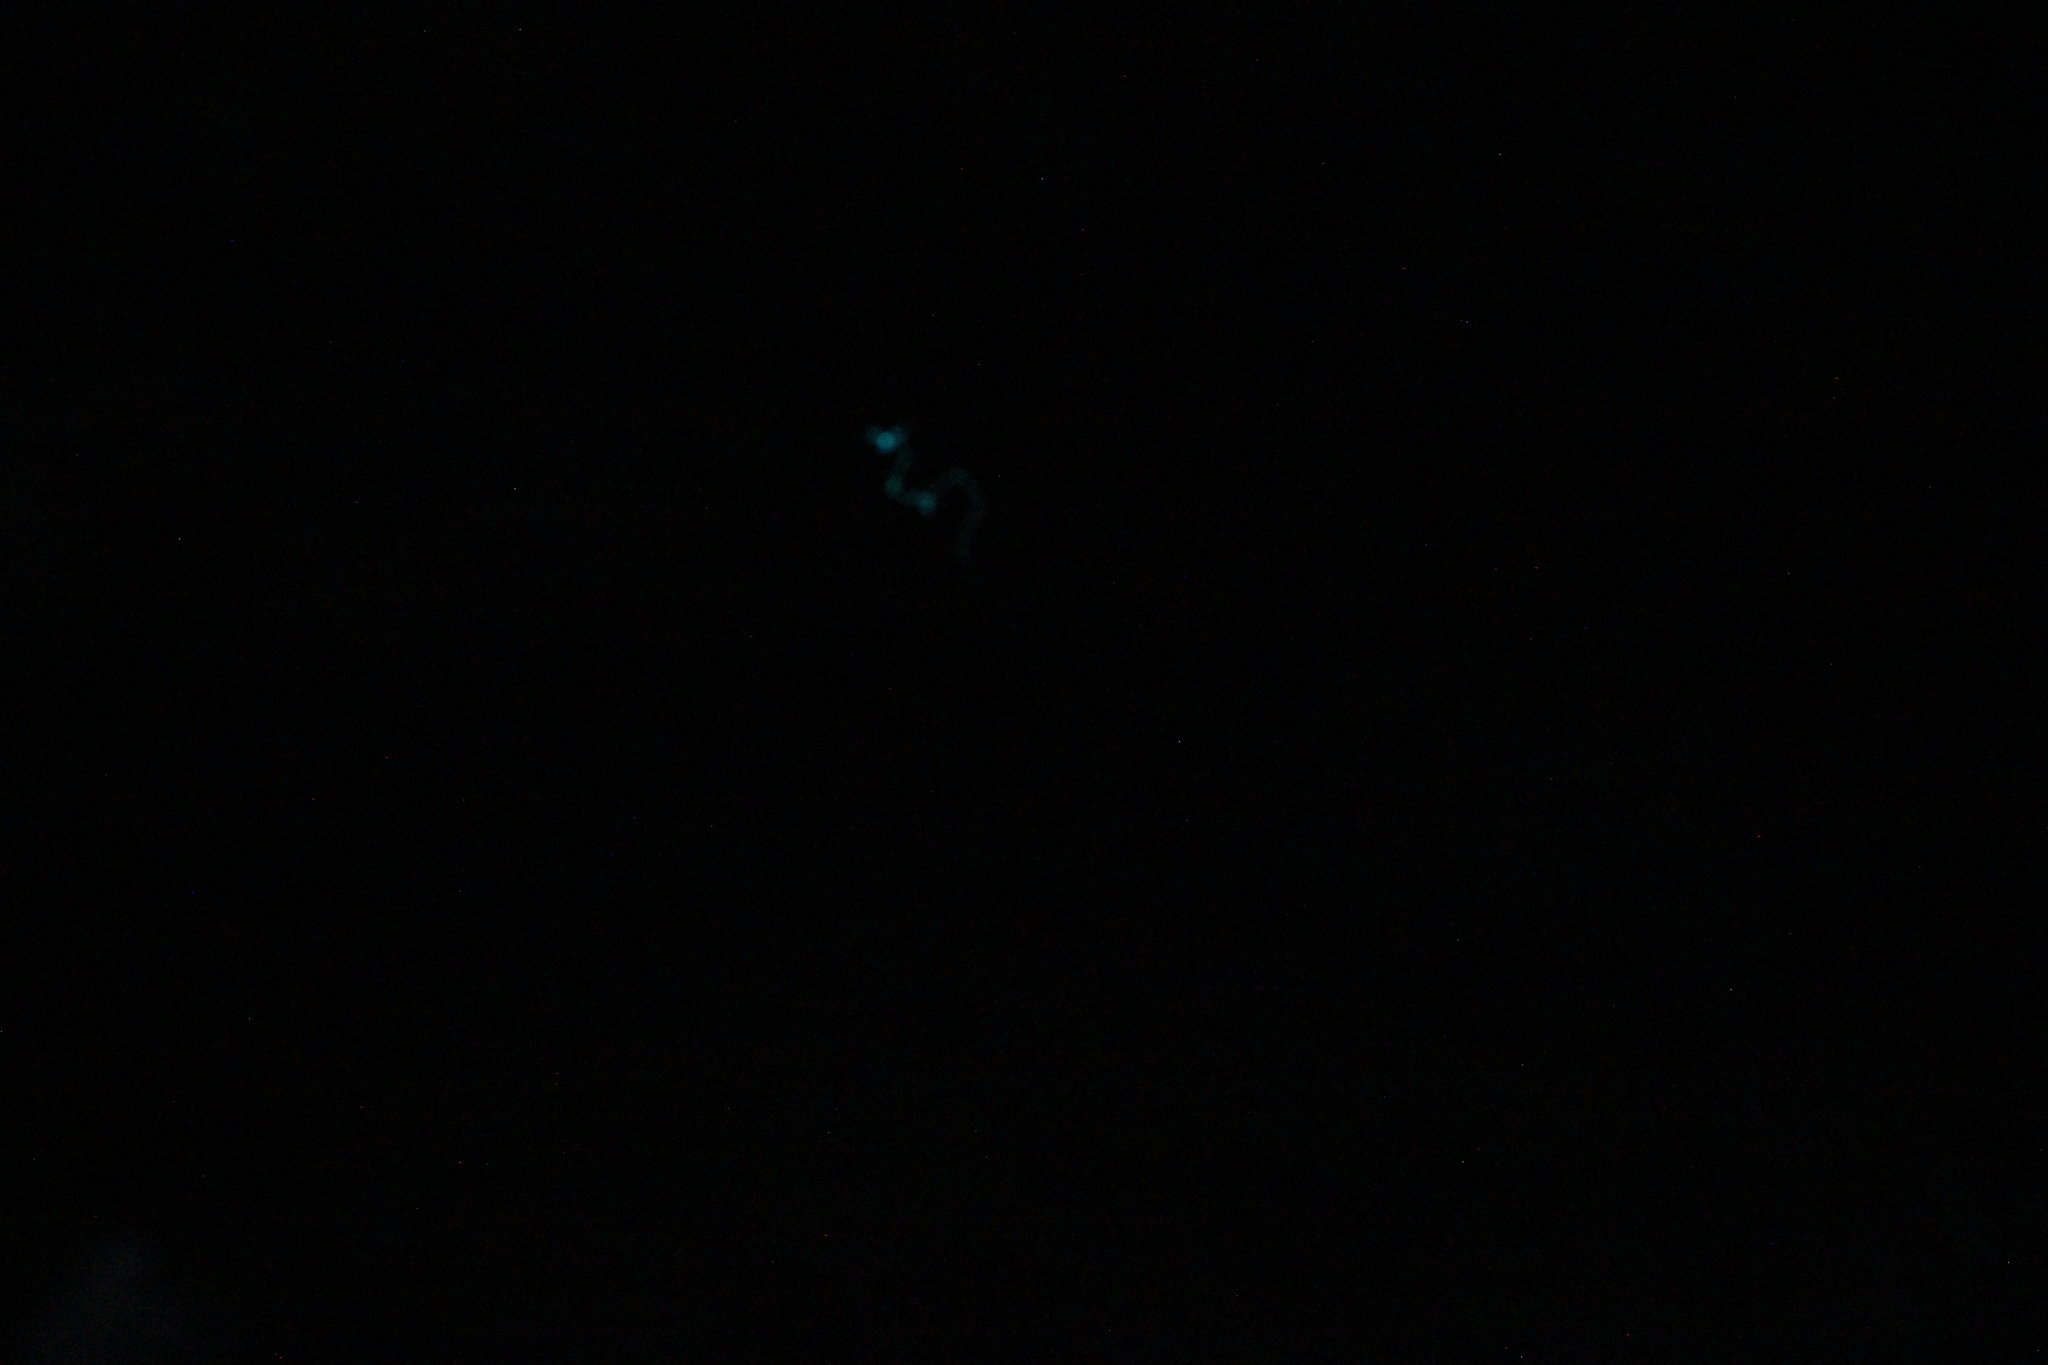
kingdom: Animalia
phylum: Arthropoda
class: Insecta
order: Diptera
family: Keroplatidae
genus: Arachnocampa
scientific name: Arachnocampa luminosa
